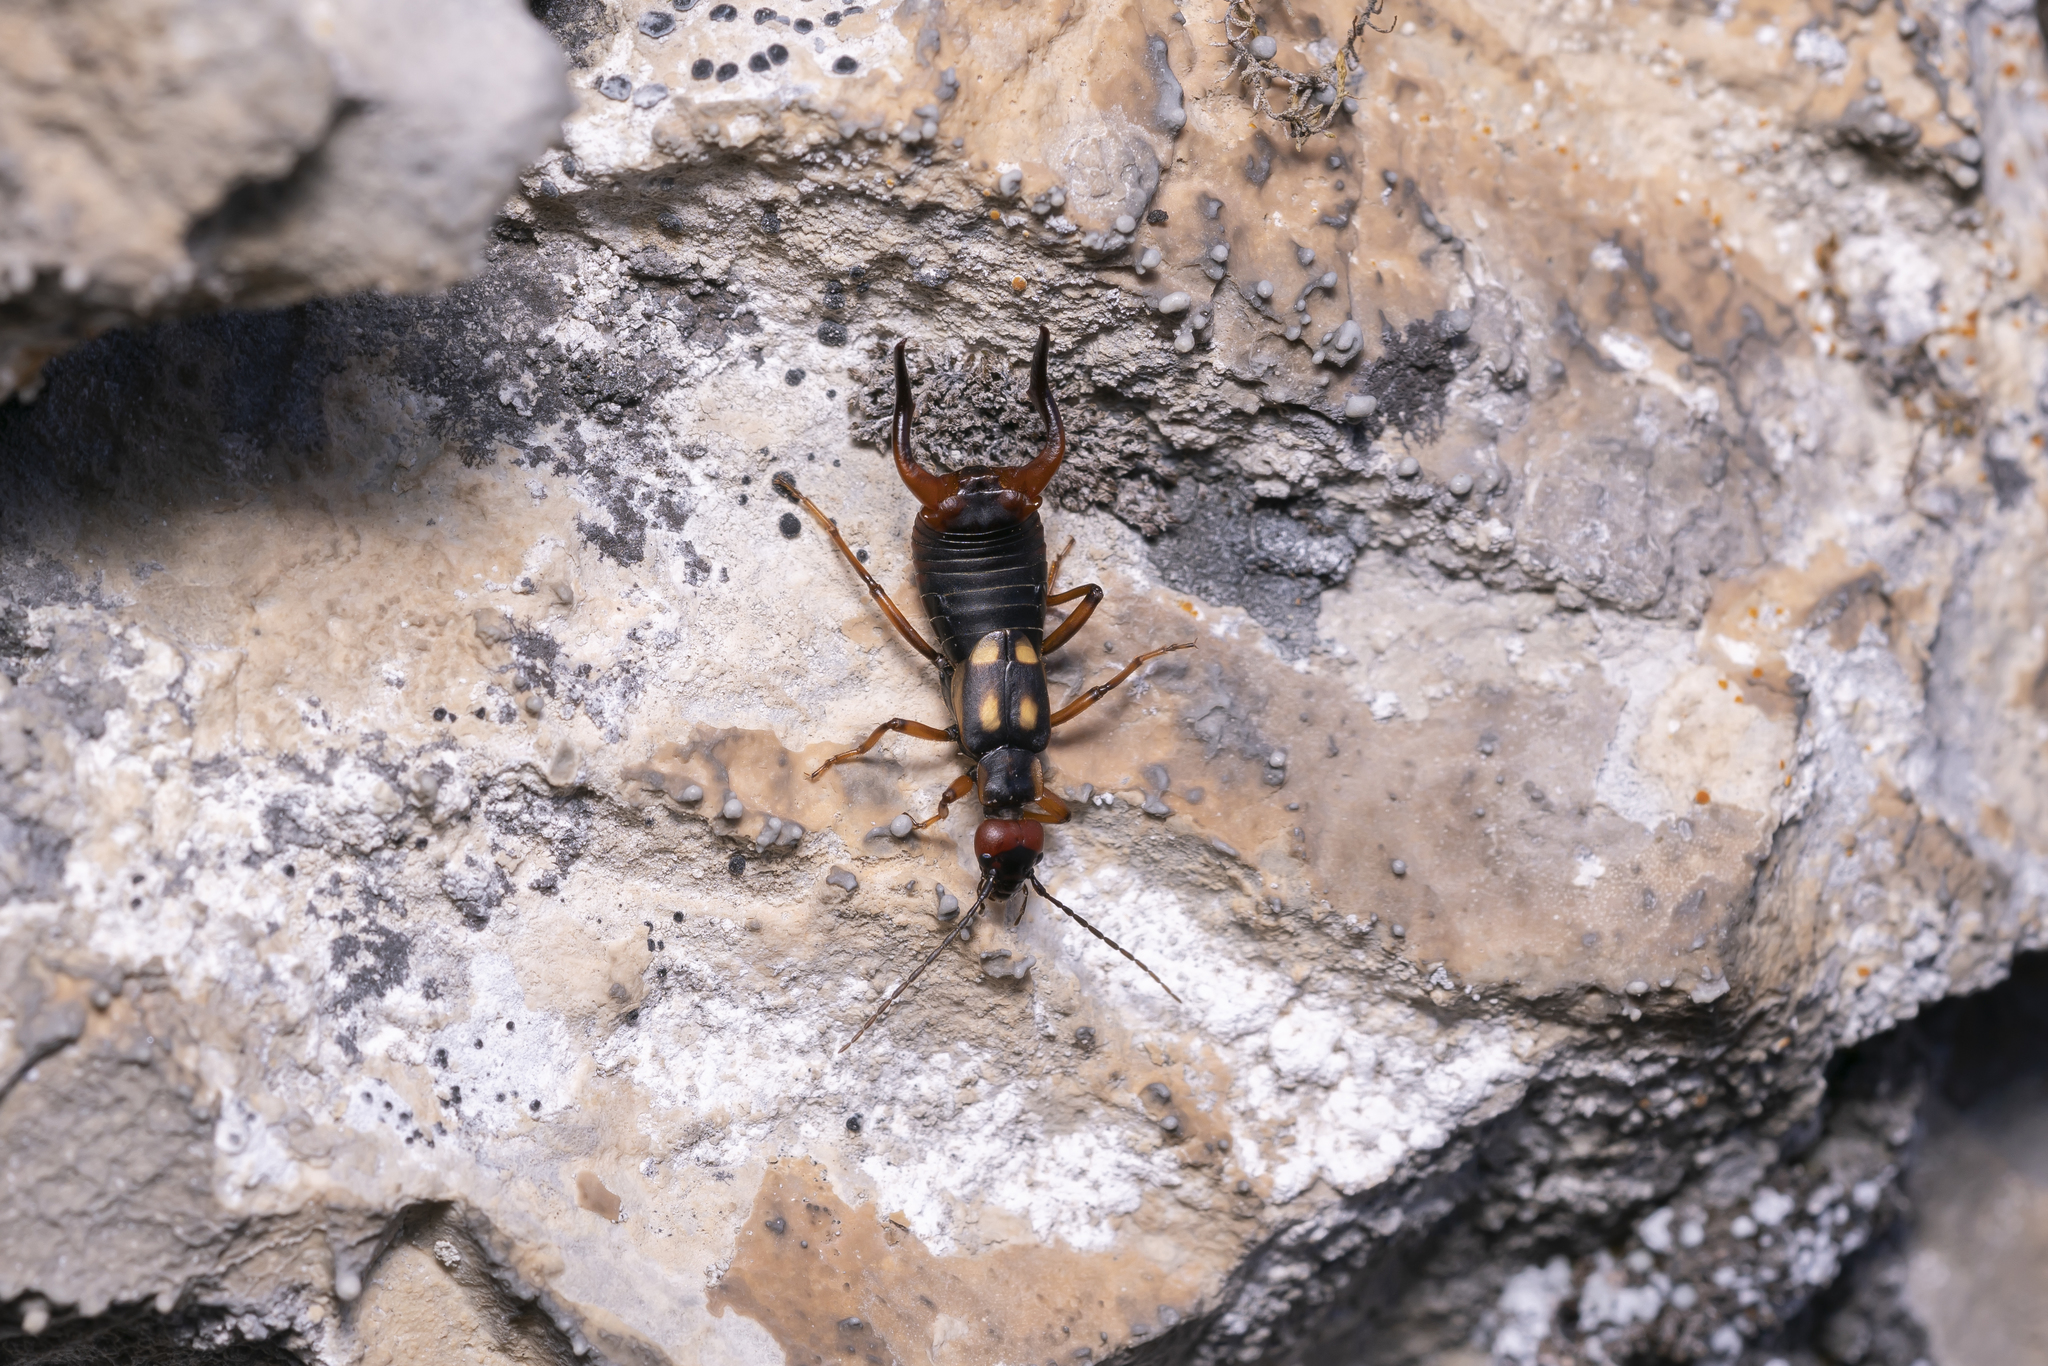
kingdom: Animalia
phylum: Arthropoda
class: Insecta
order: Dermaptera
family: Forficulidae
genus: Anechura
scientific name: Anechura bipunctata
